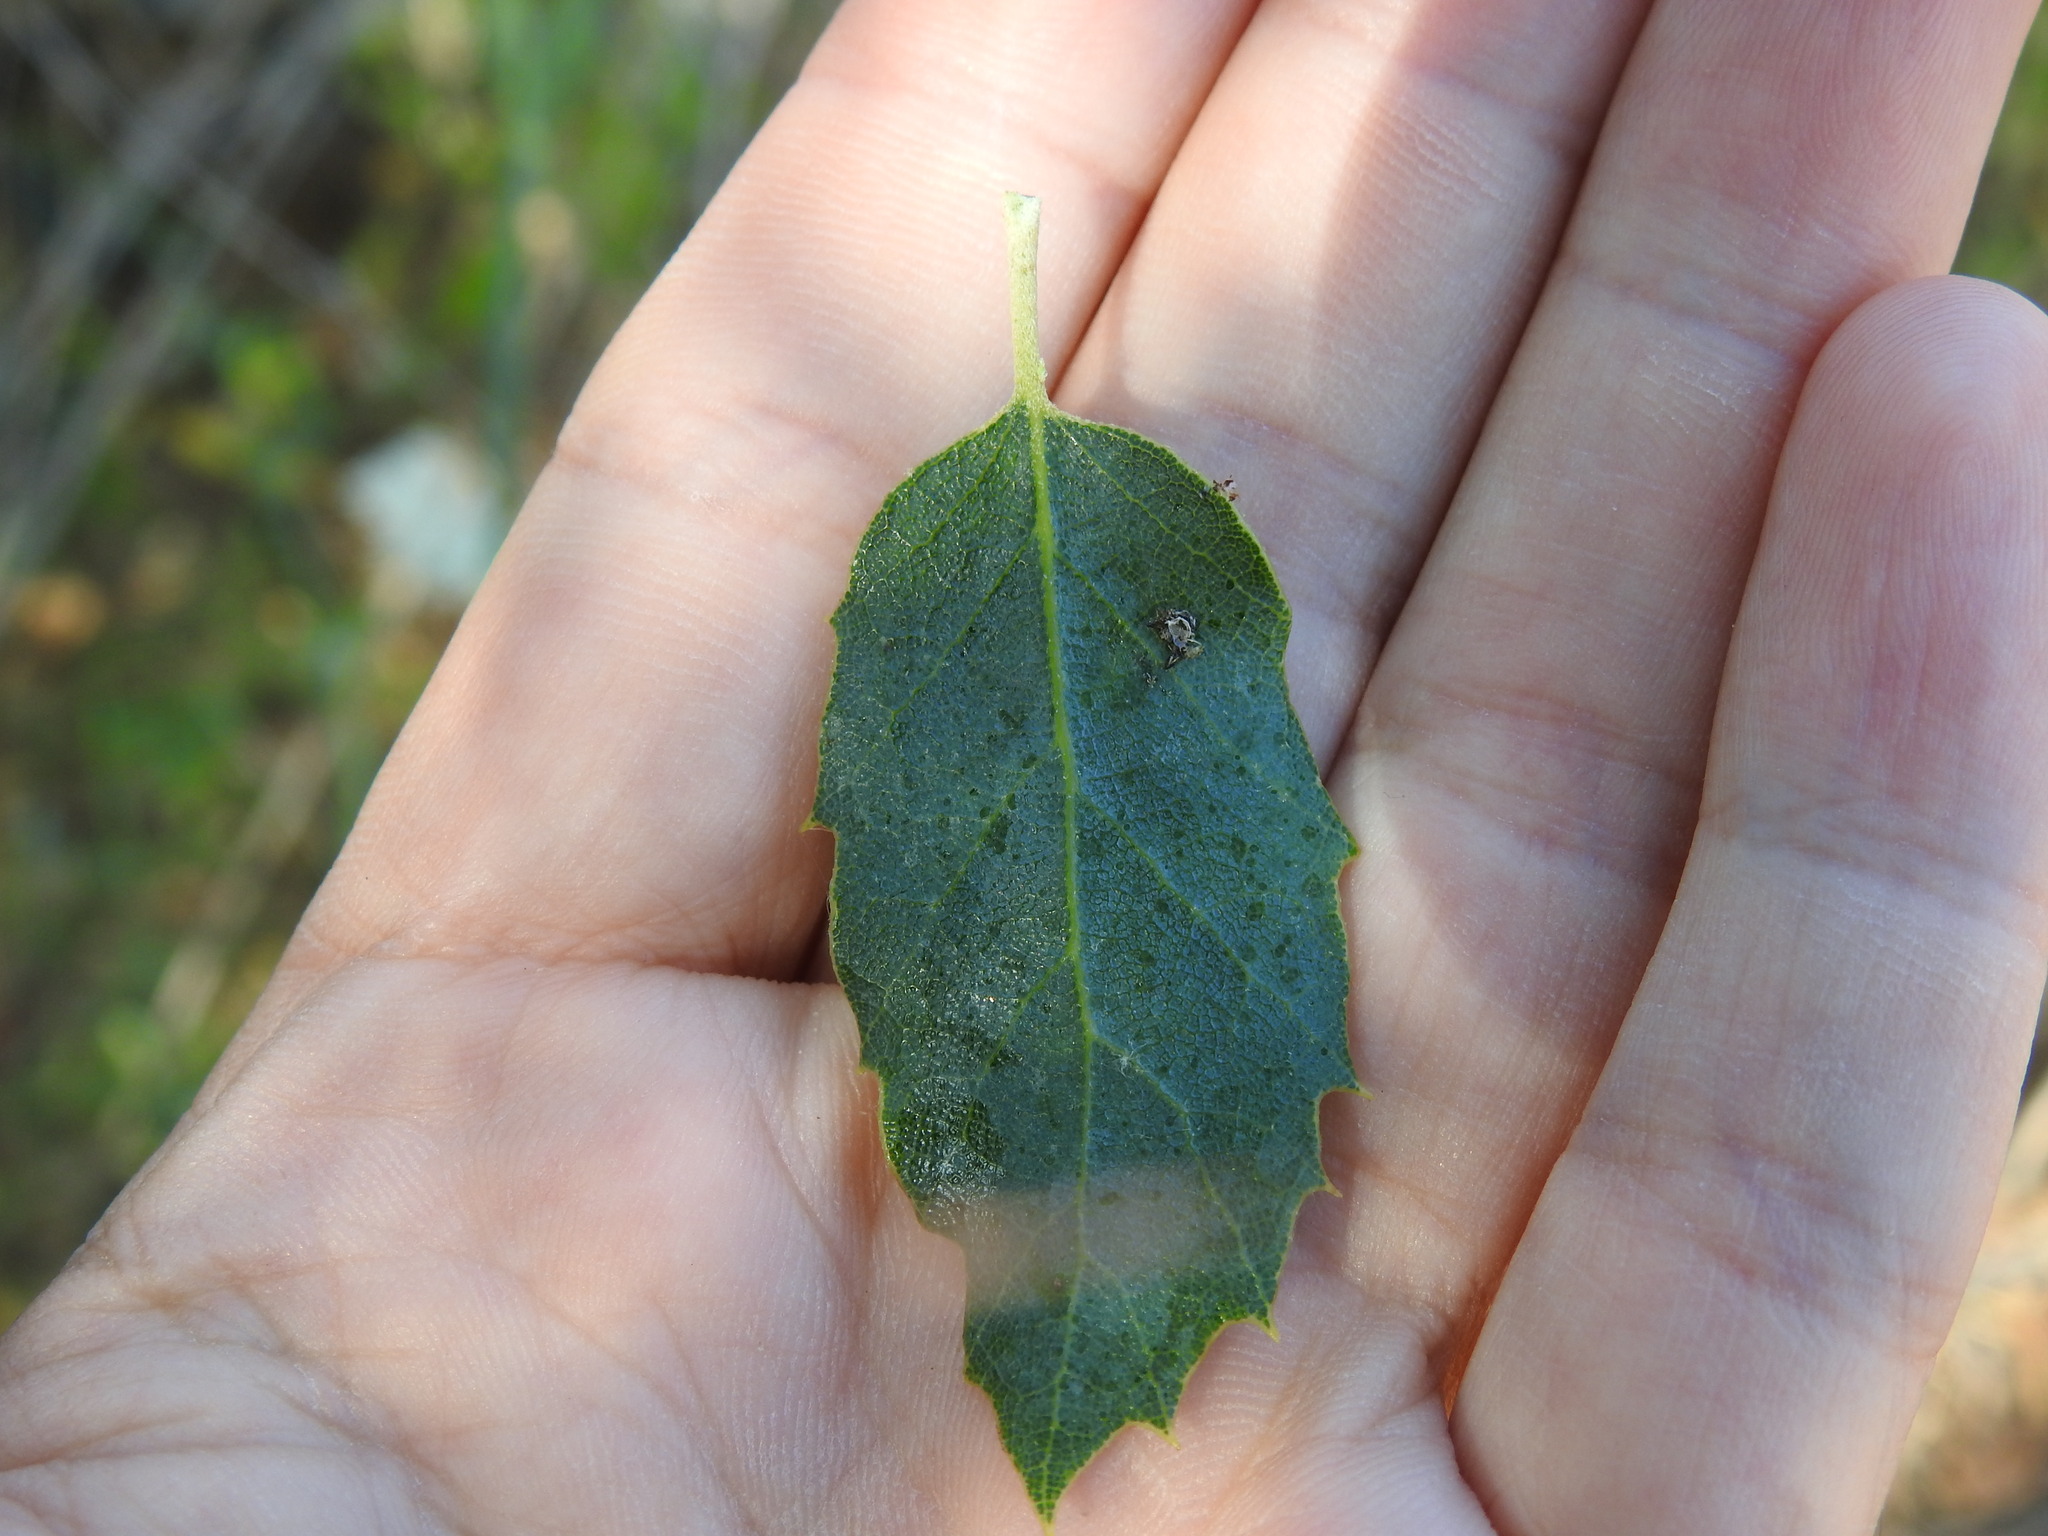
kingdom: Plantae
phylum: Tracheophyta
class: Magnoliopsida
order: Fagales
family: Fagaceae
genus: Quercus
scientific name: Quercus avellaniformis
